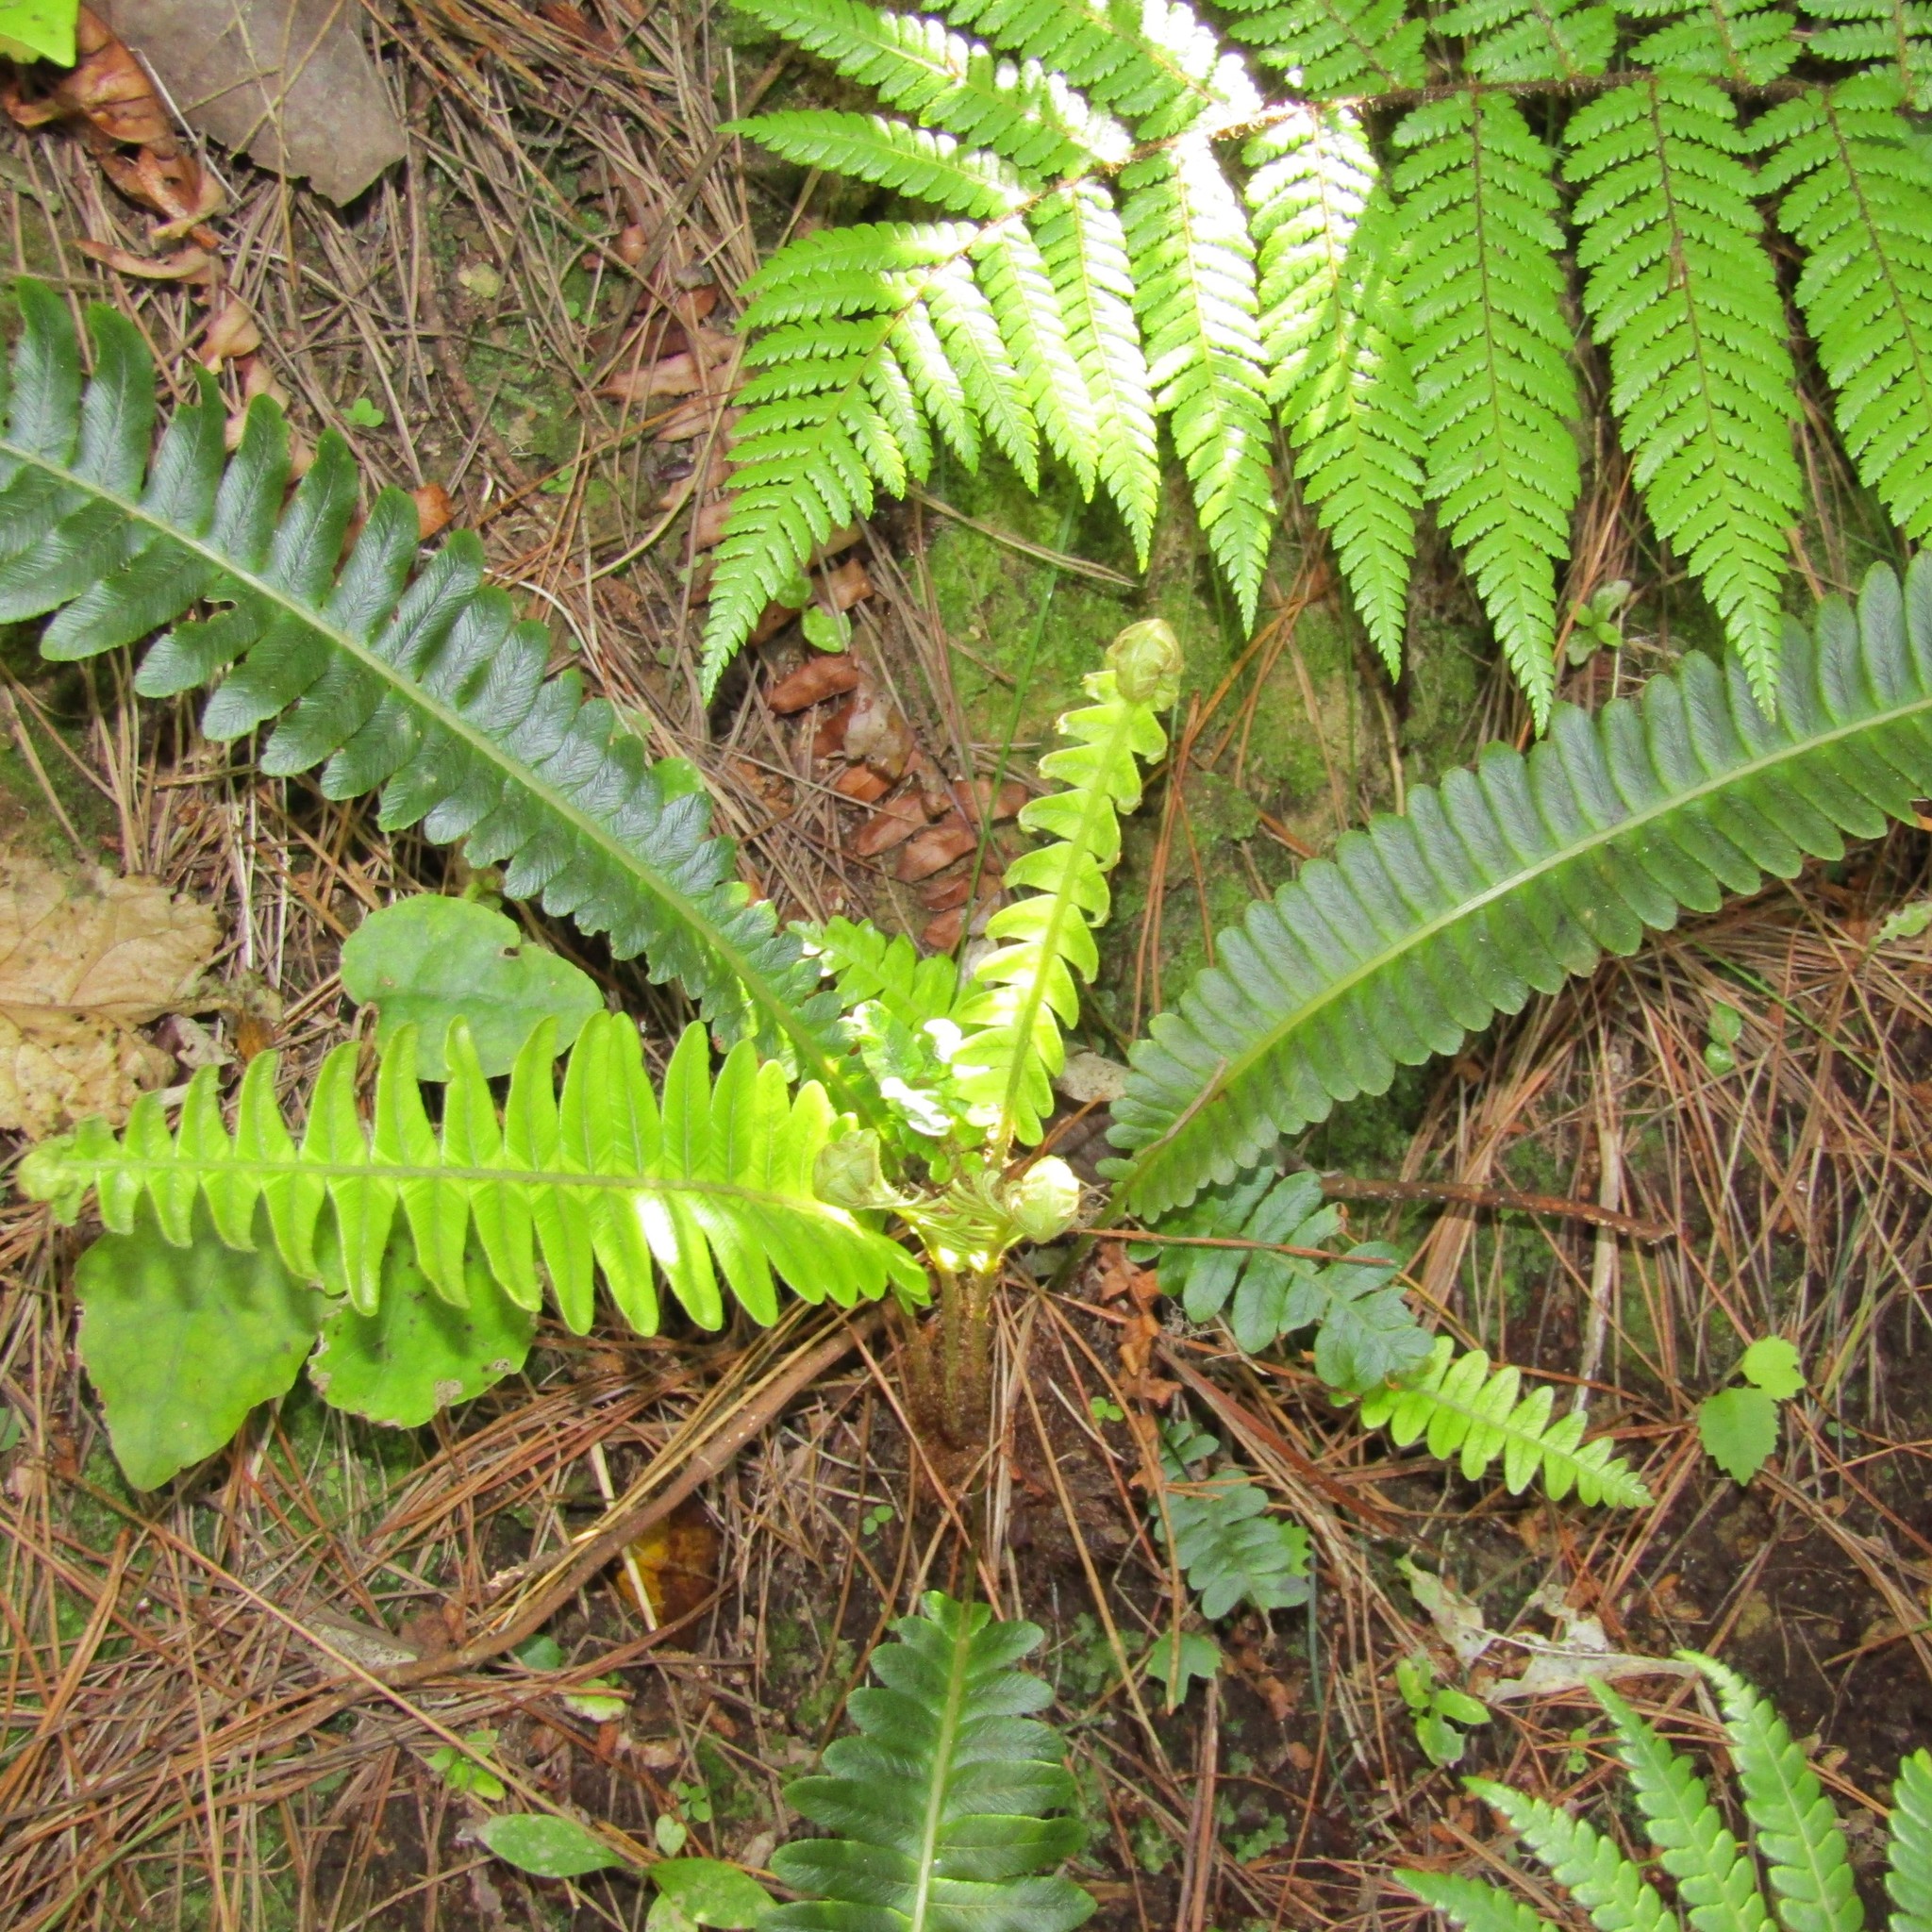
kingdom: Plantae
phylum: Tracheophyta
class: Polypodiopsida
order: Polypodiales
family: Blechnaceae
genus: Lomaria
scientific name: Lomaria discolor
